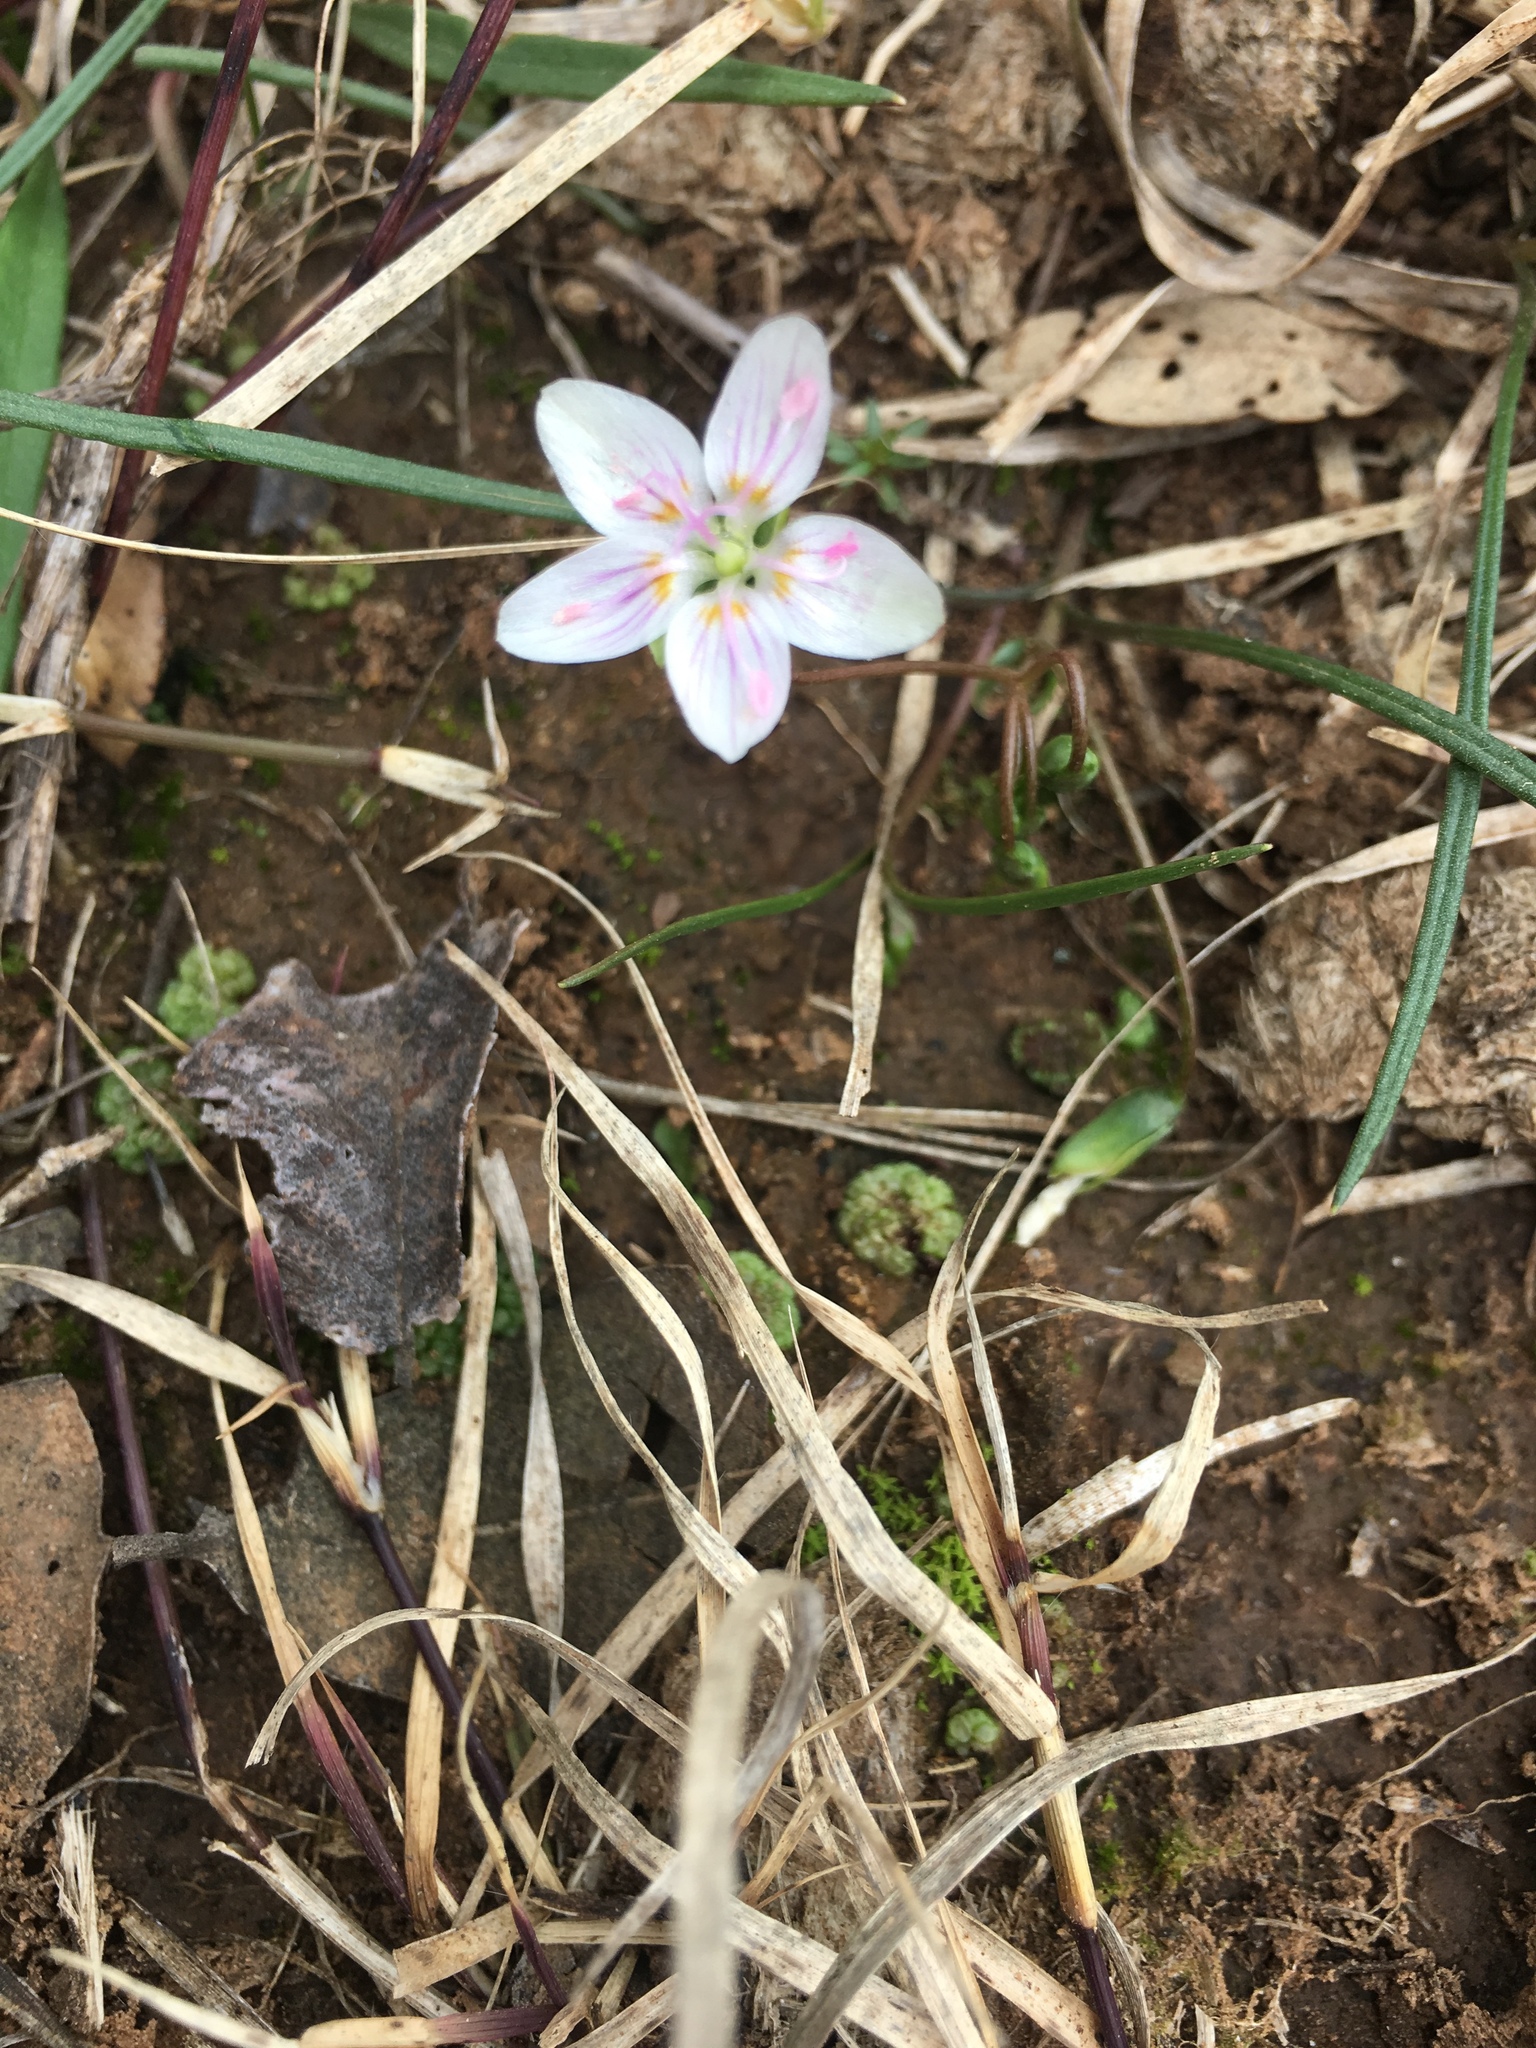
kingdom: Plantae
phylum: Tracheophyta
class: Magnoliopsida
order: Caryophyllales
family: Montiaceae
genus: Claytonia
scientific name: Claytonia virginica
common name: Virginia springbeauty
